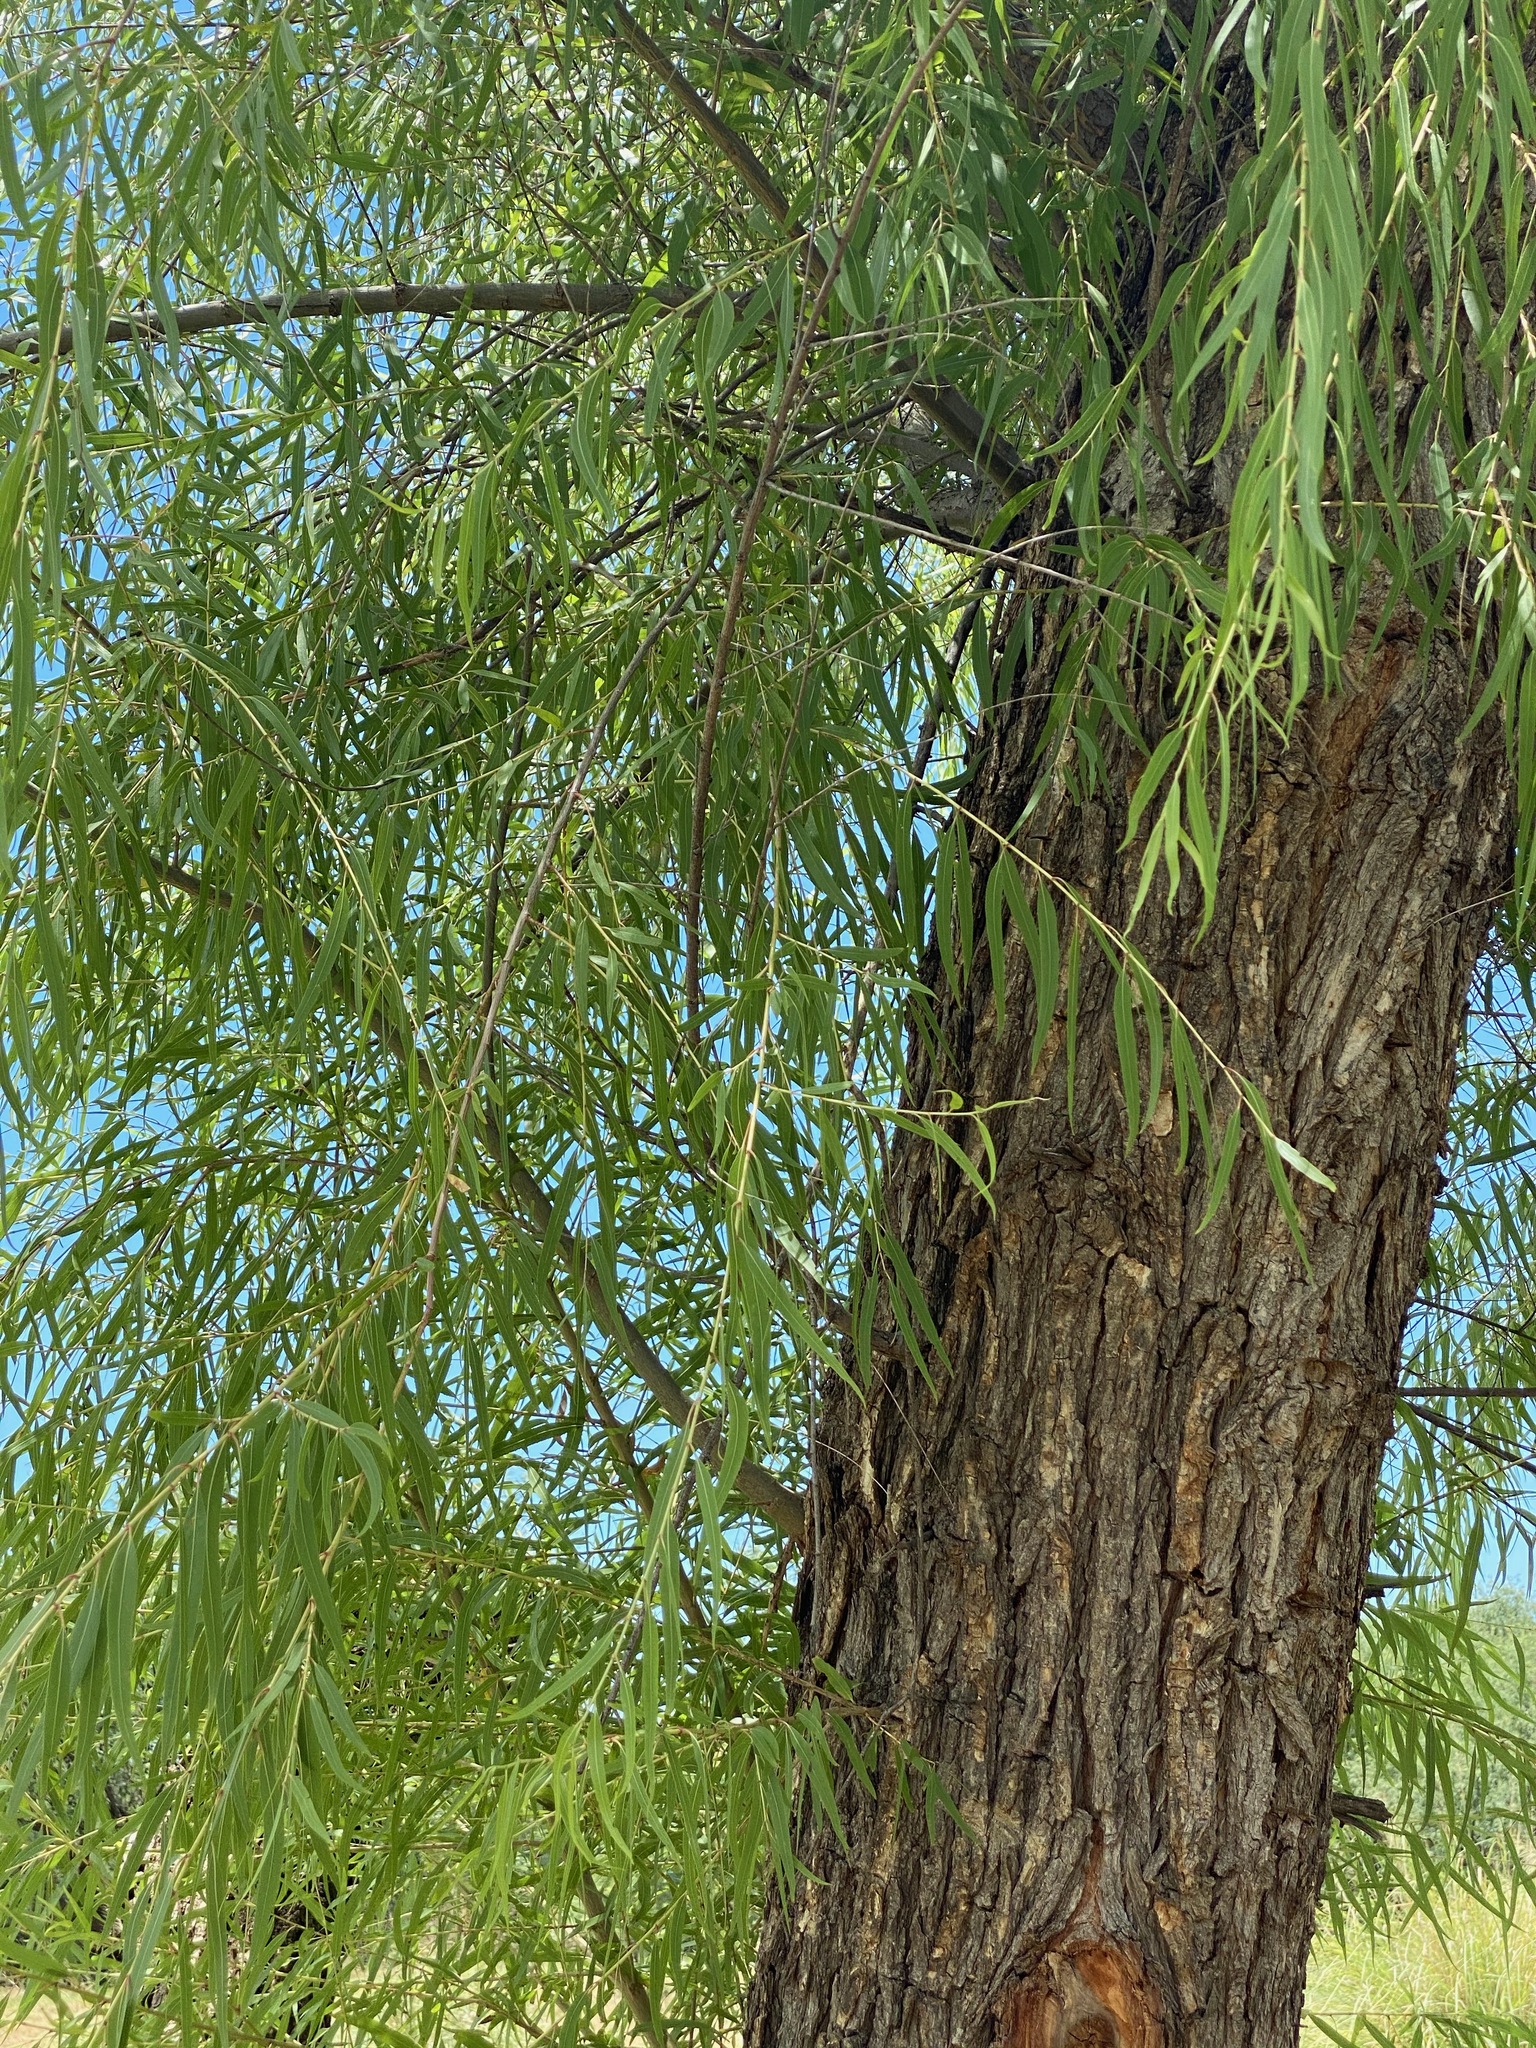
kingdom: Plantae
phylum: Tracheophyta
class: Magnoliopsida
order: Malpighiales
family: Salicaceae
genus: Salix
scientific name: Salix gooddingii
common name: Goodding's willow
